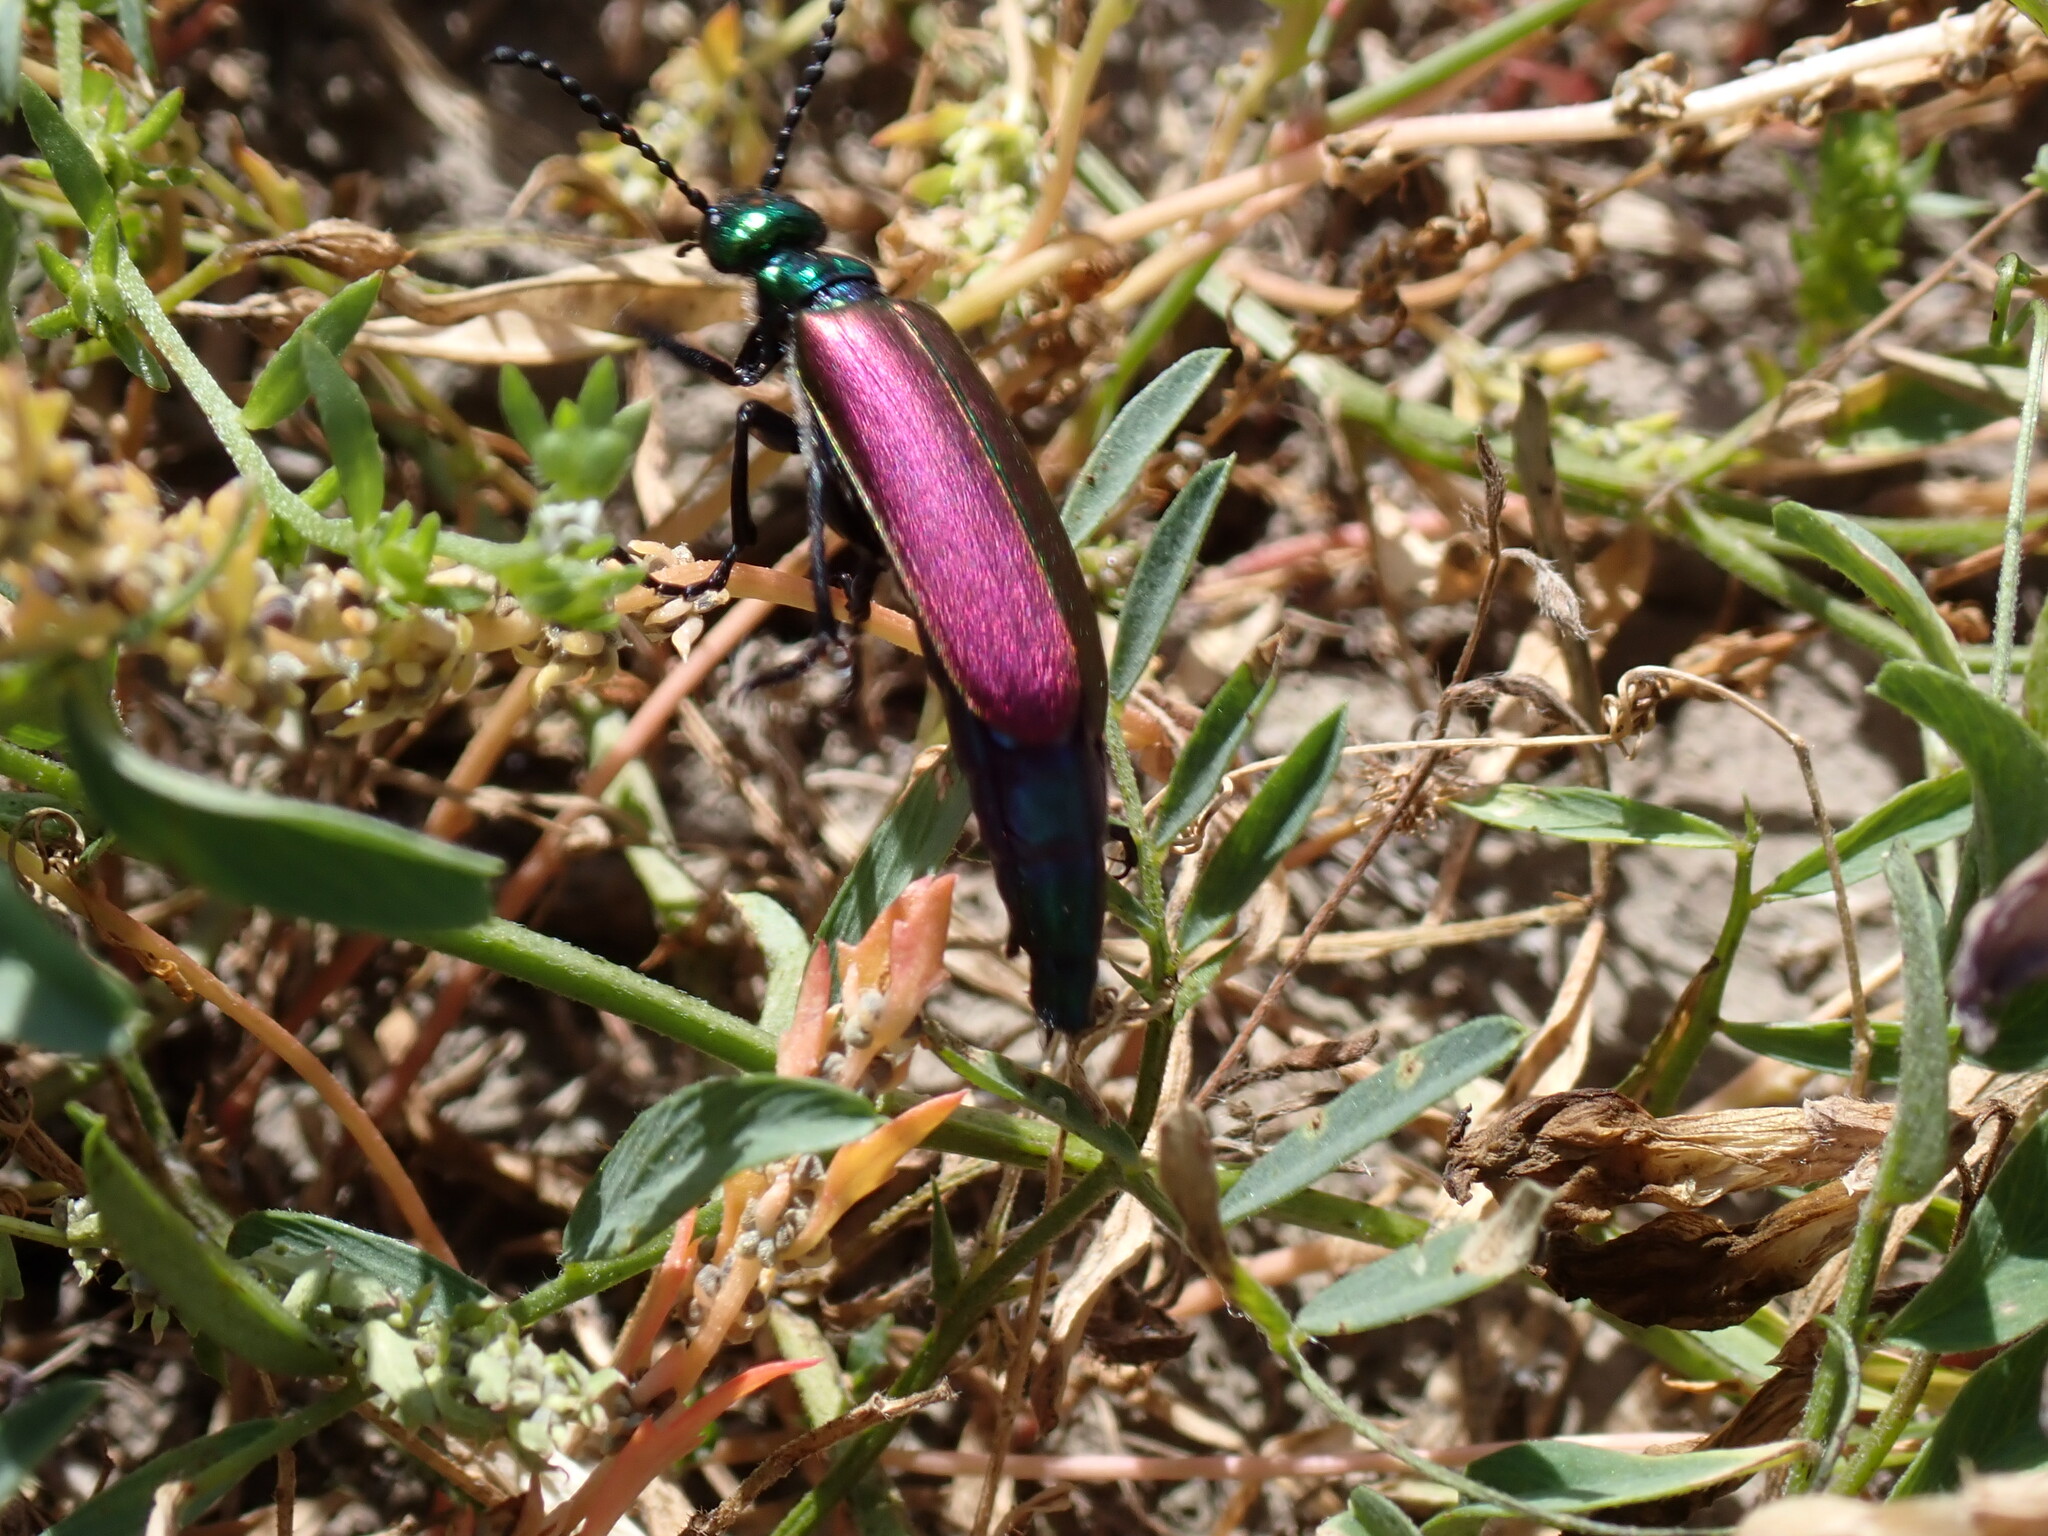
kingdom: Animalia
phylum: Arthropoda
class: Insecta
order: Coleoptera
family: Meloidae
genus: Lytta
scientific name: Lytta nuttallii
